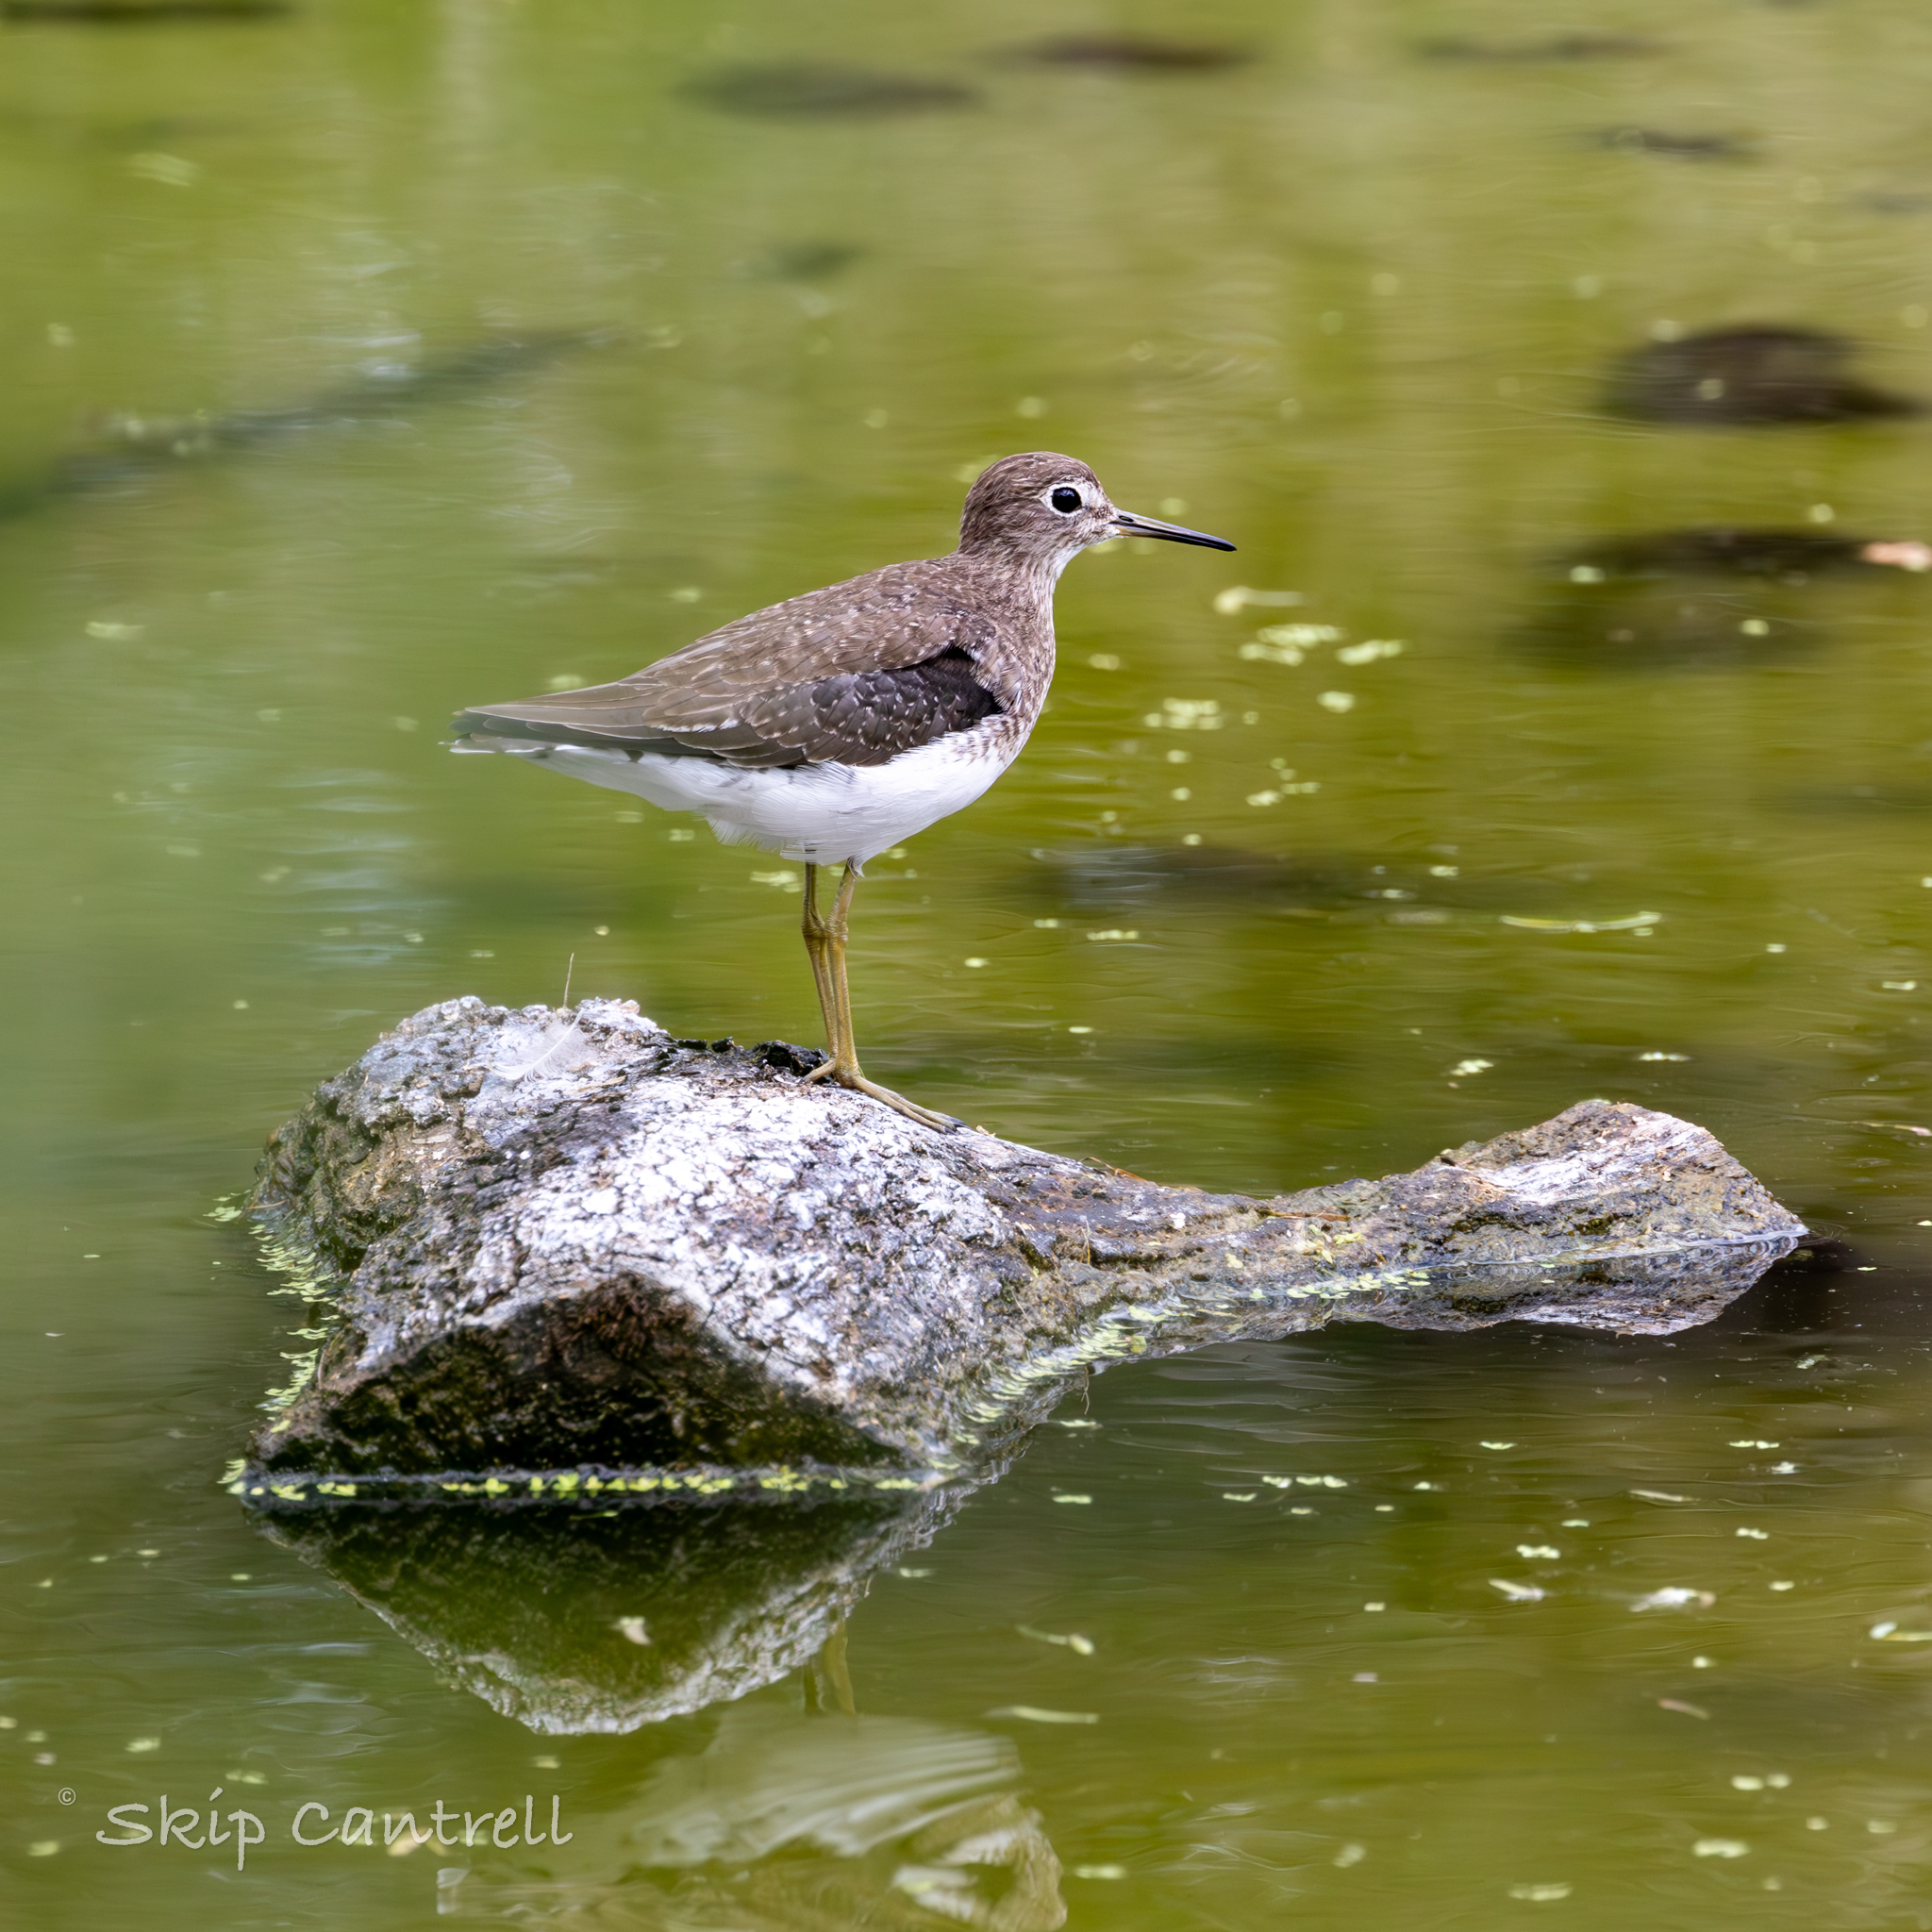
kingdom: Animalia
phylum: Chordata
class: Aves
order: Charadriiformes
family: Scolopacidae
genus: Tringa
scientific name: Tringa solitaria
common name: Solitary sandpiper
